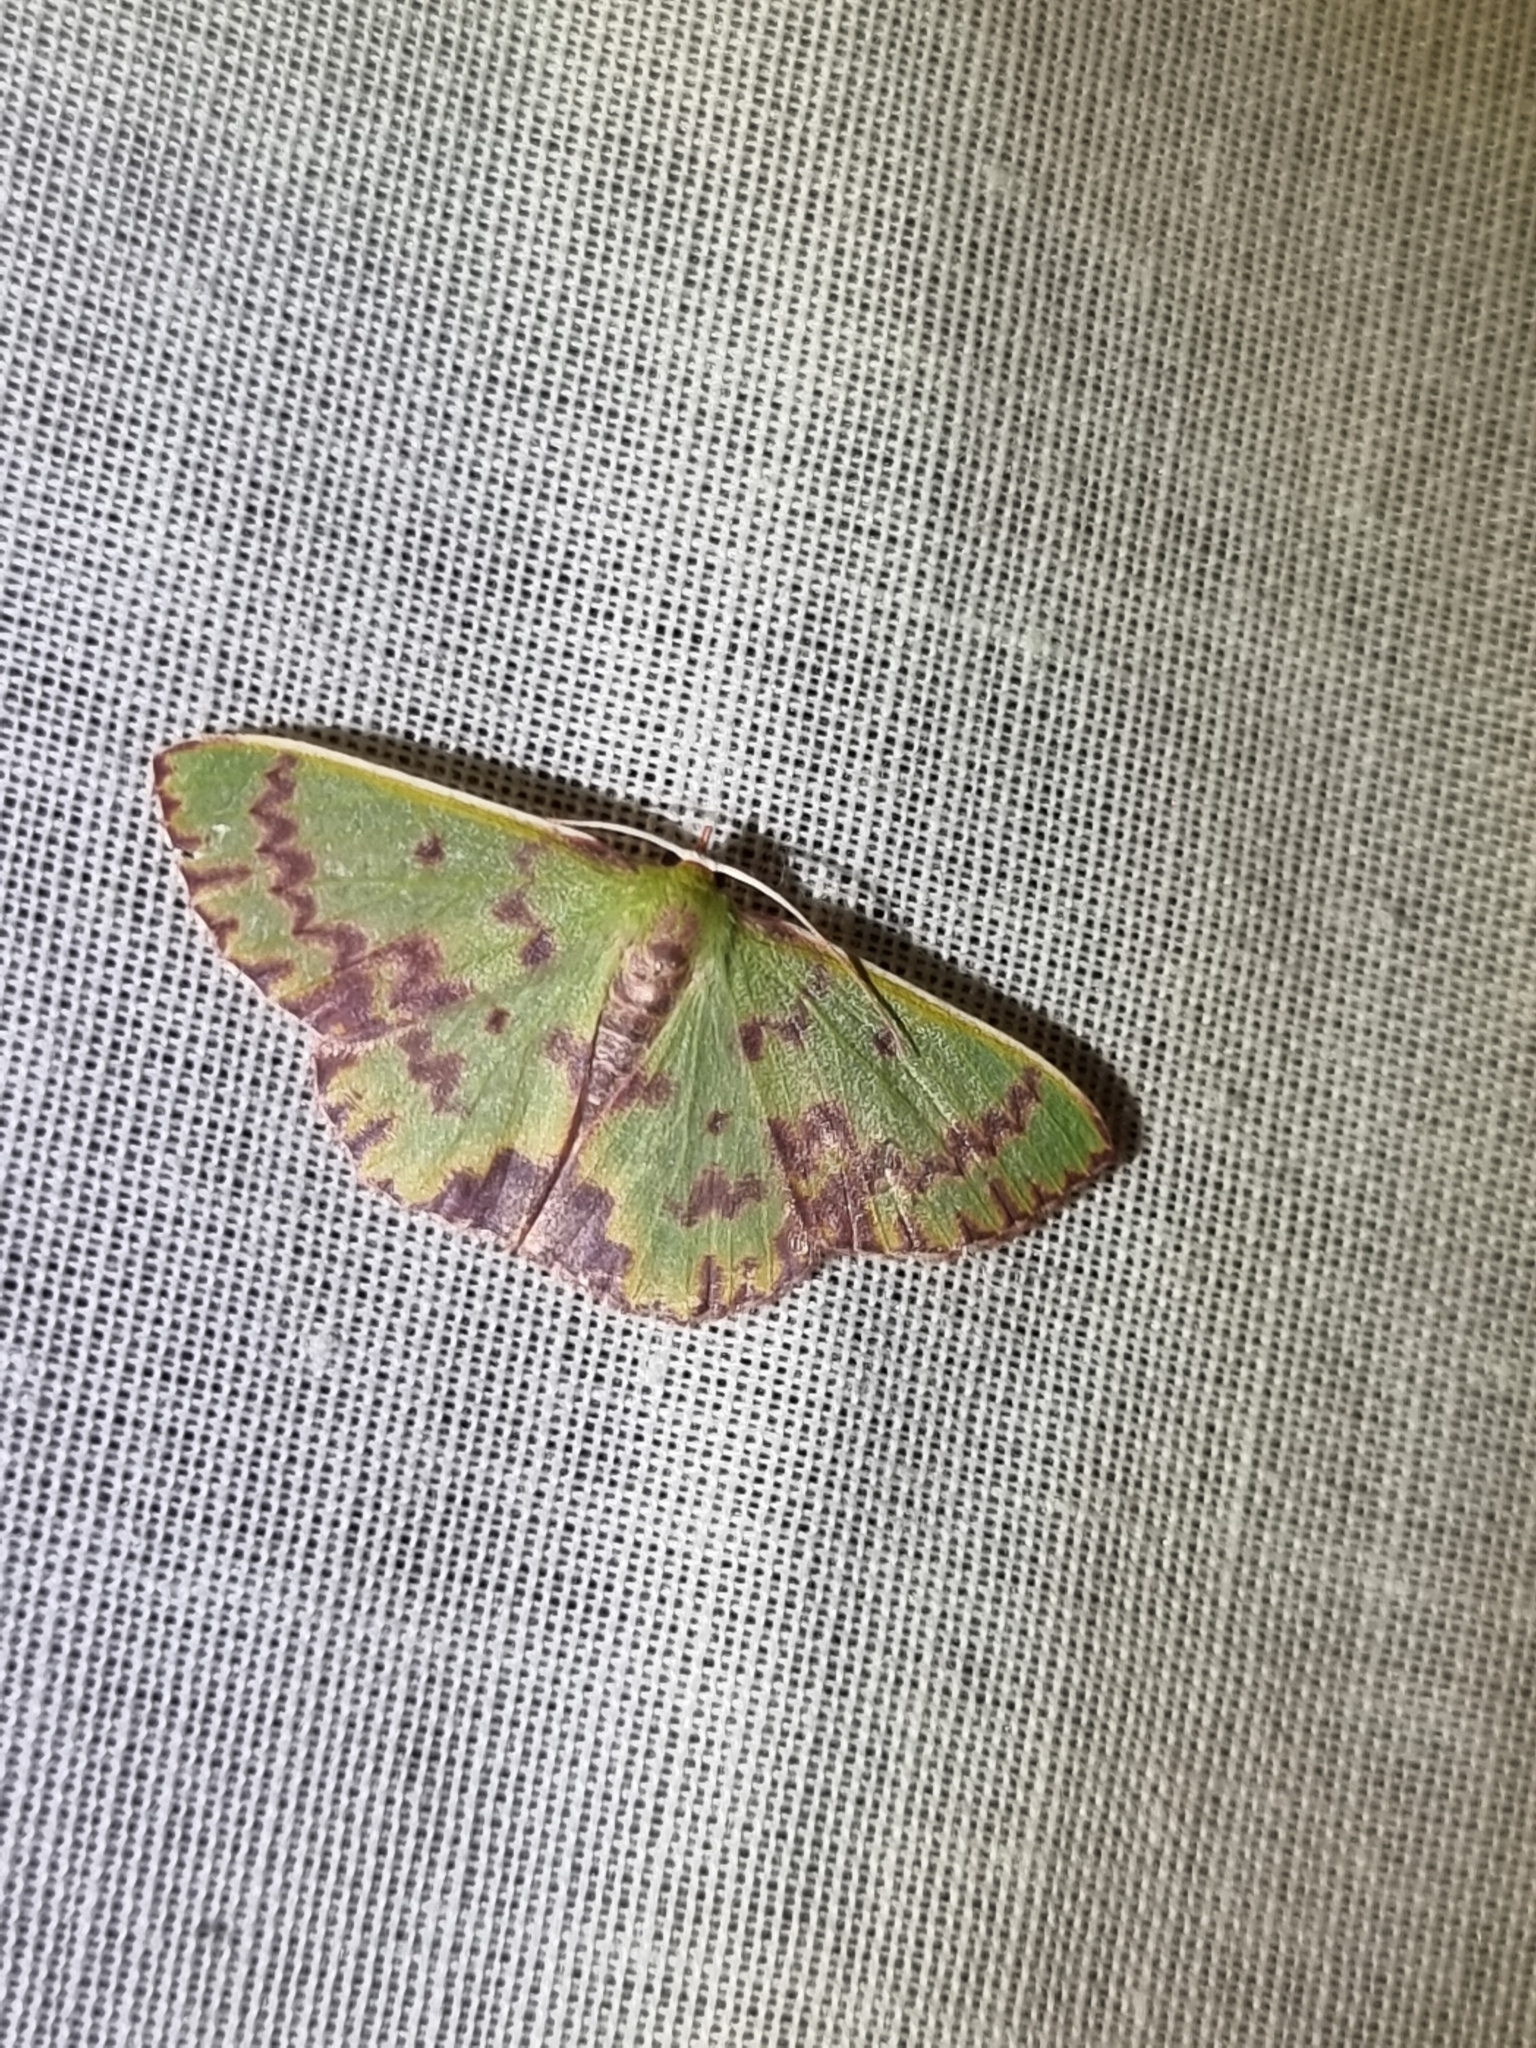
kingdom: Animalia
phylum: Arthropoda
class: Insecta
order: Lepidoptera
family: Geometridae
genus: Prasinocyma
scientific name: Prasinocyma rhodocosma
